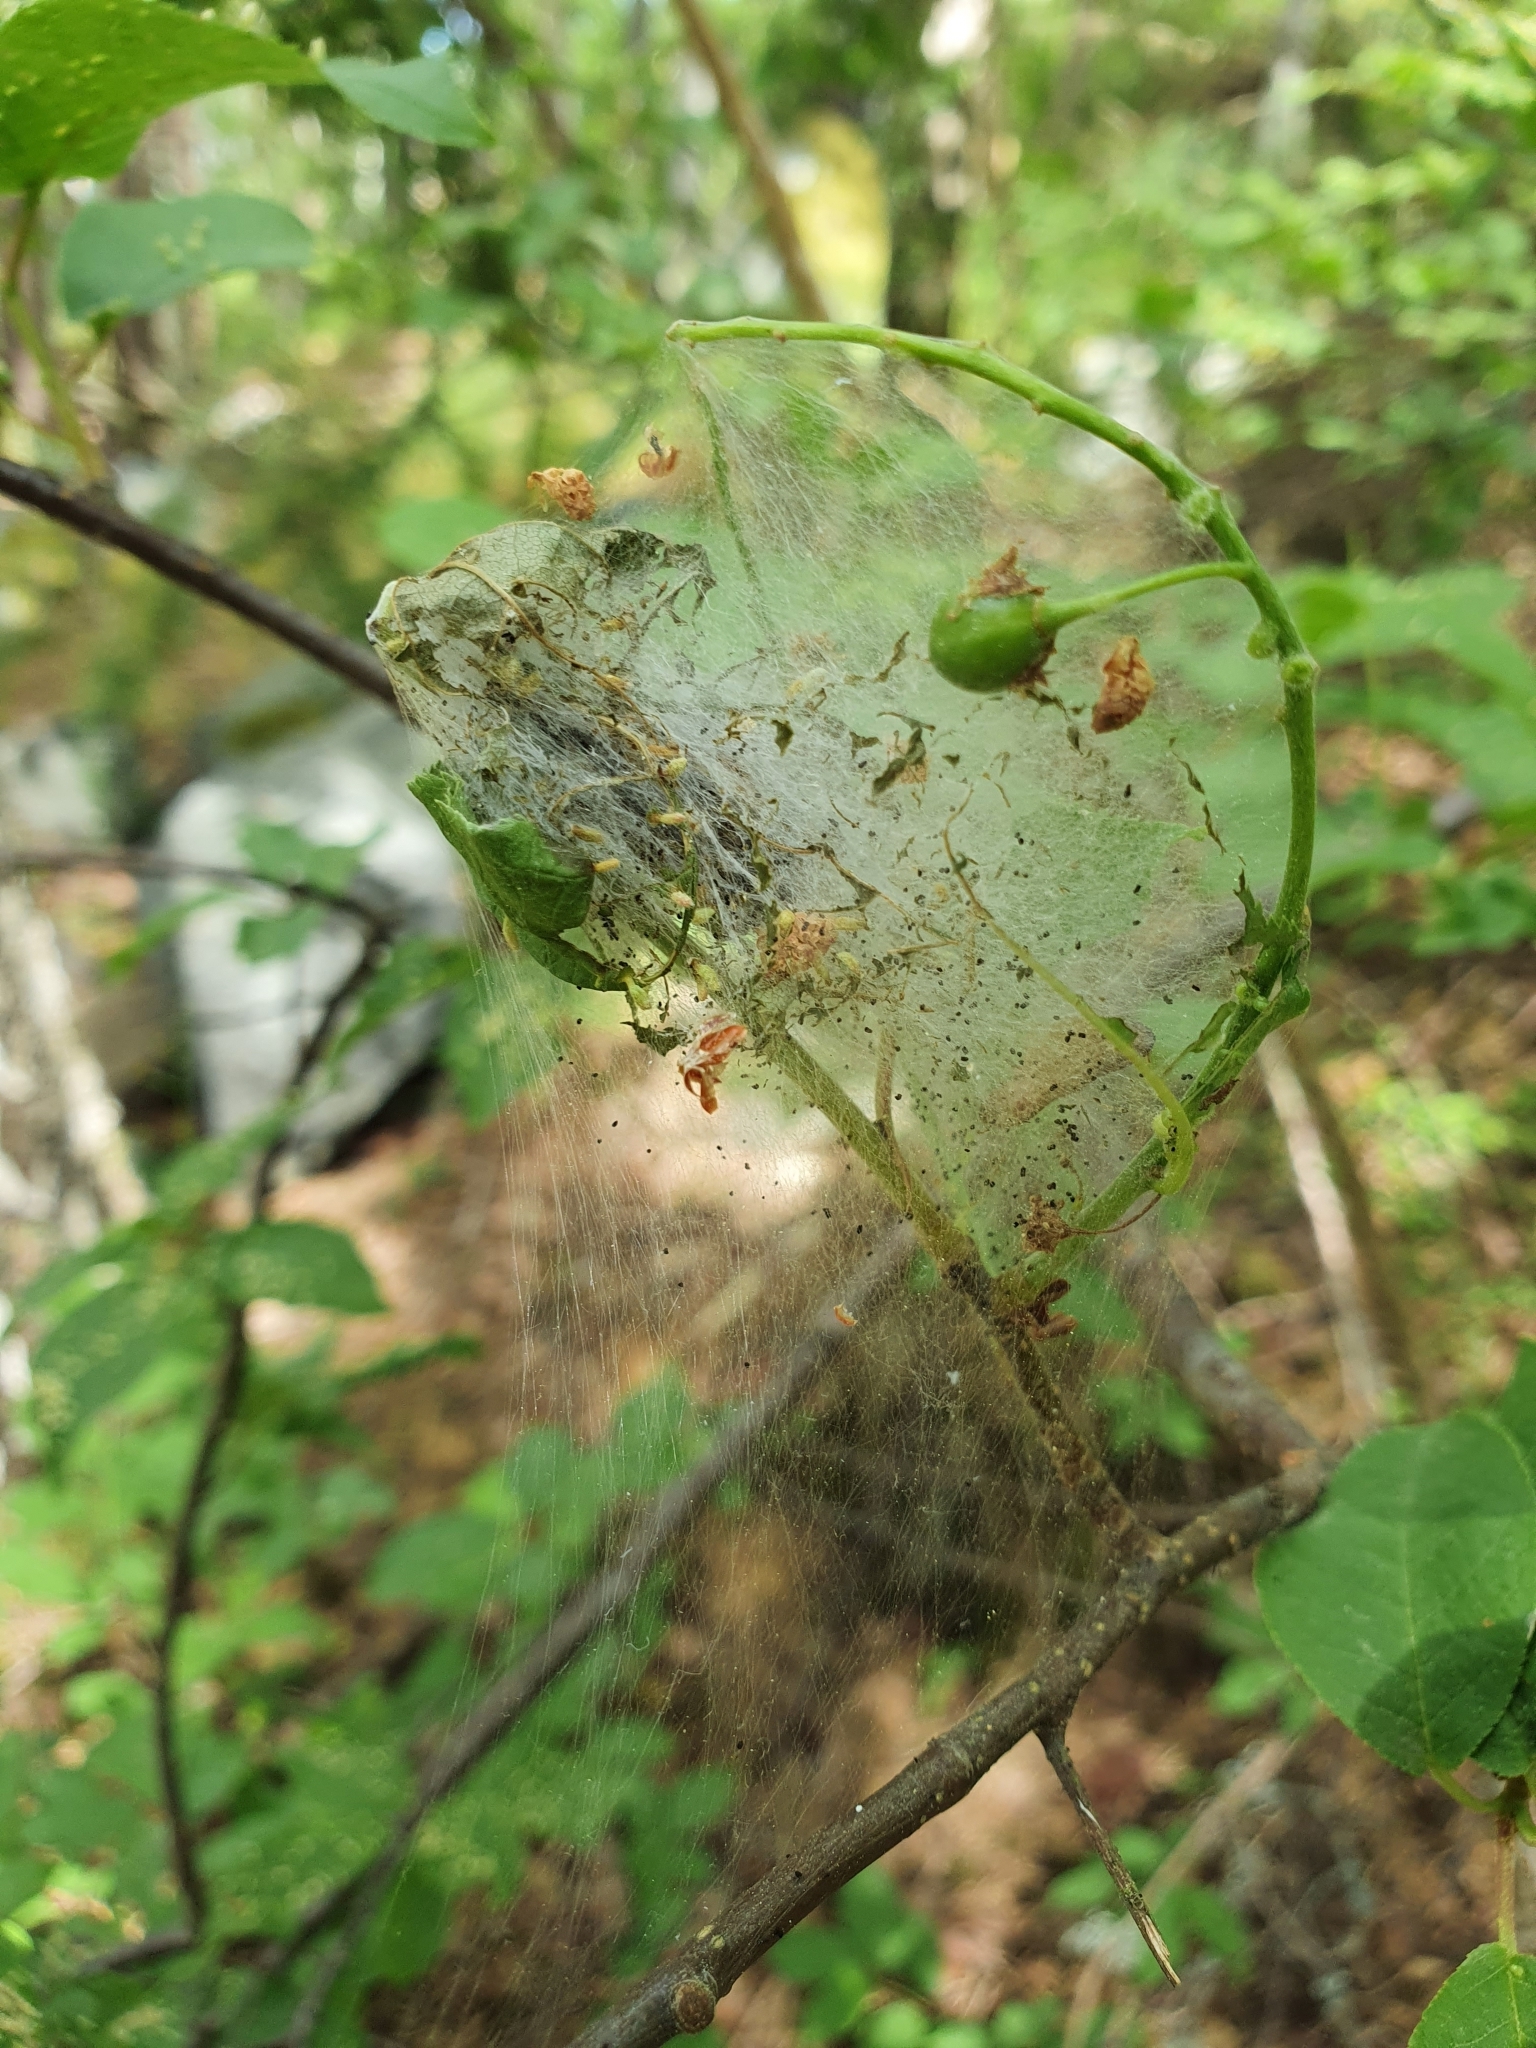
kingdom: Animalia
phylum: Arthropoda
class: Insecta
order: Lepidoptera
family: Yponomeutidae
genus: Yponomeuta
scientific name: Yponomeuta evonymella
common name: Bird-cherry ermine
